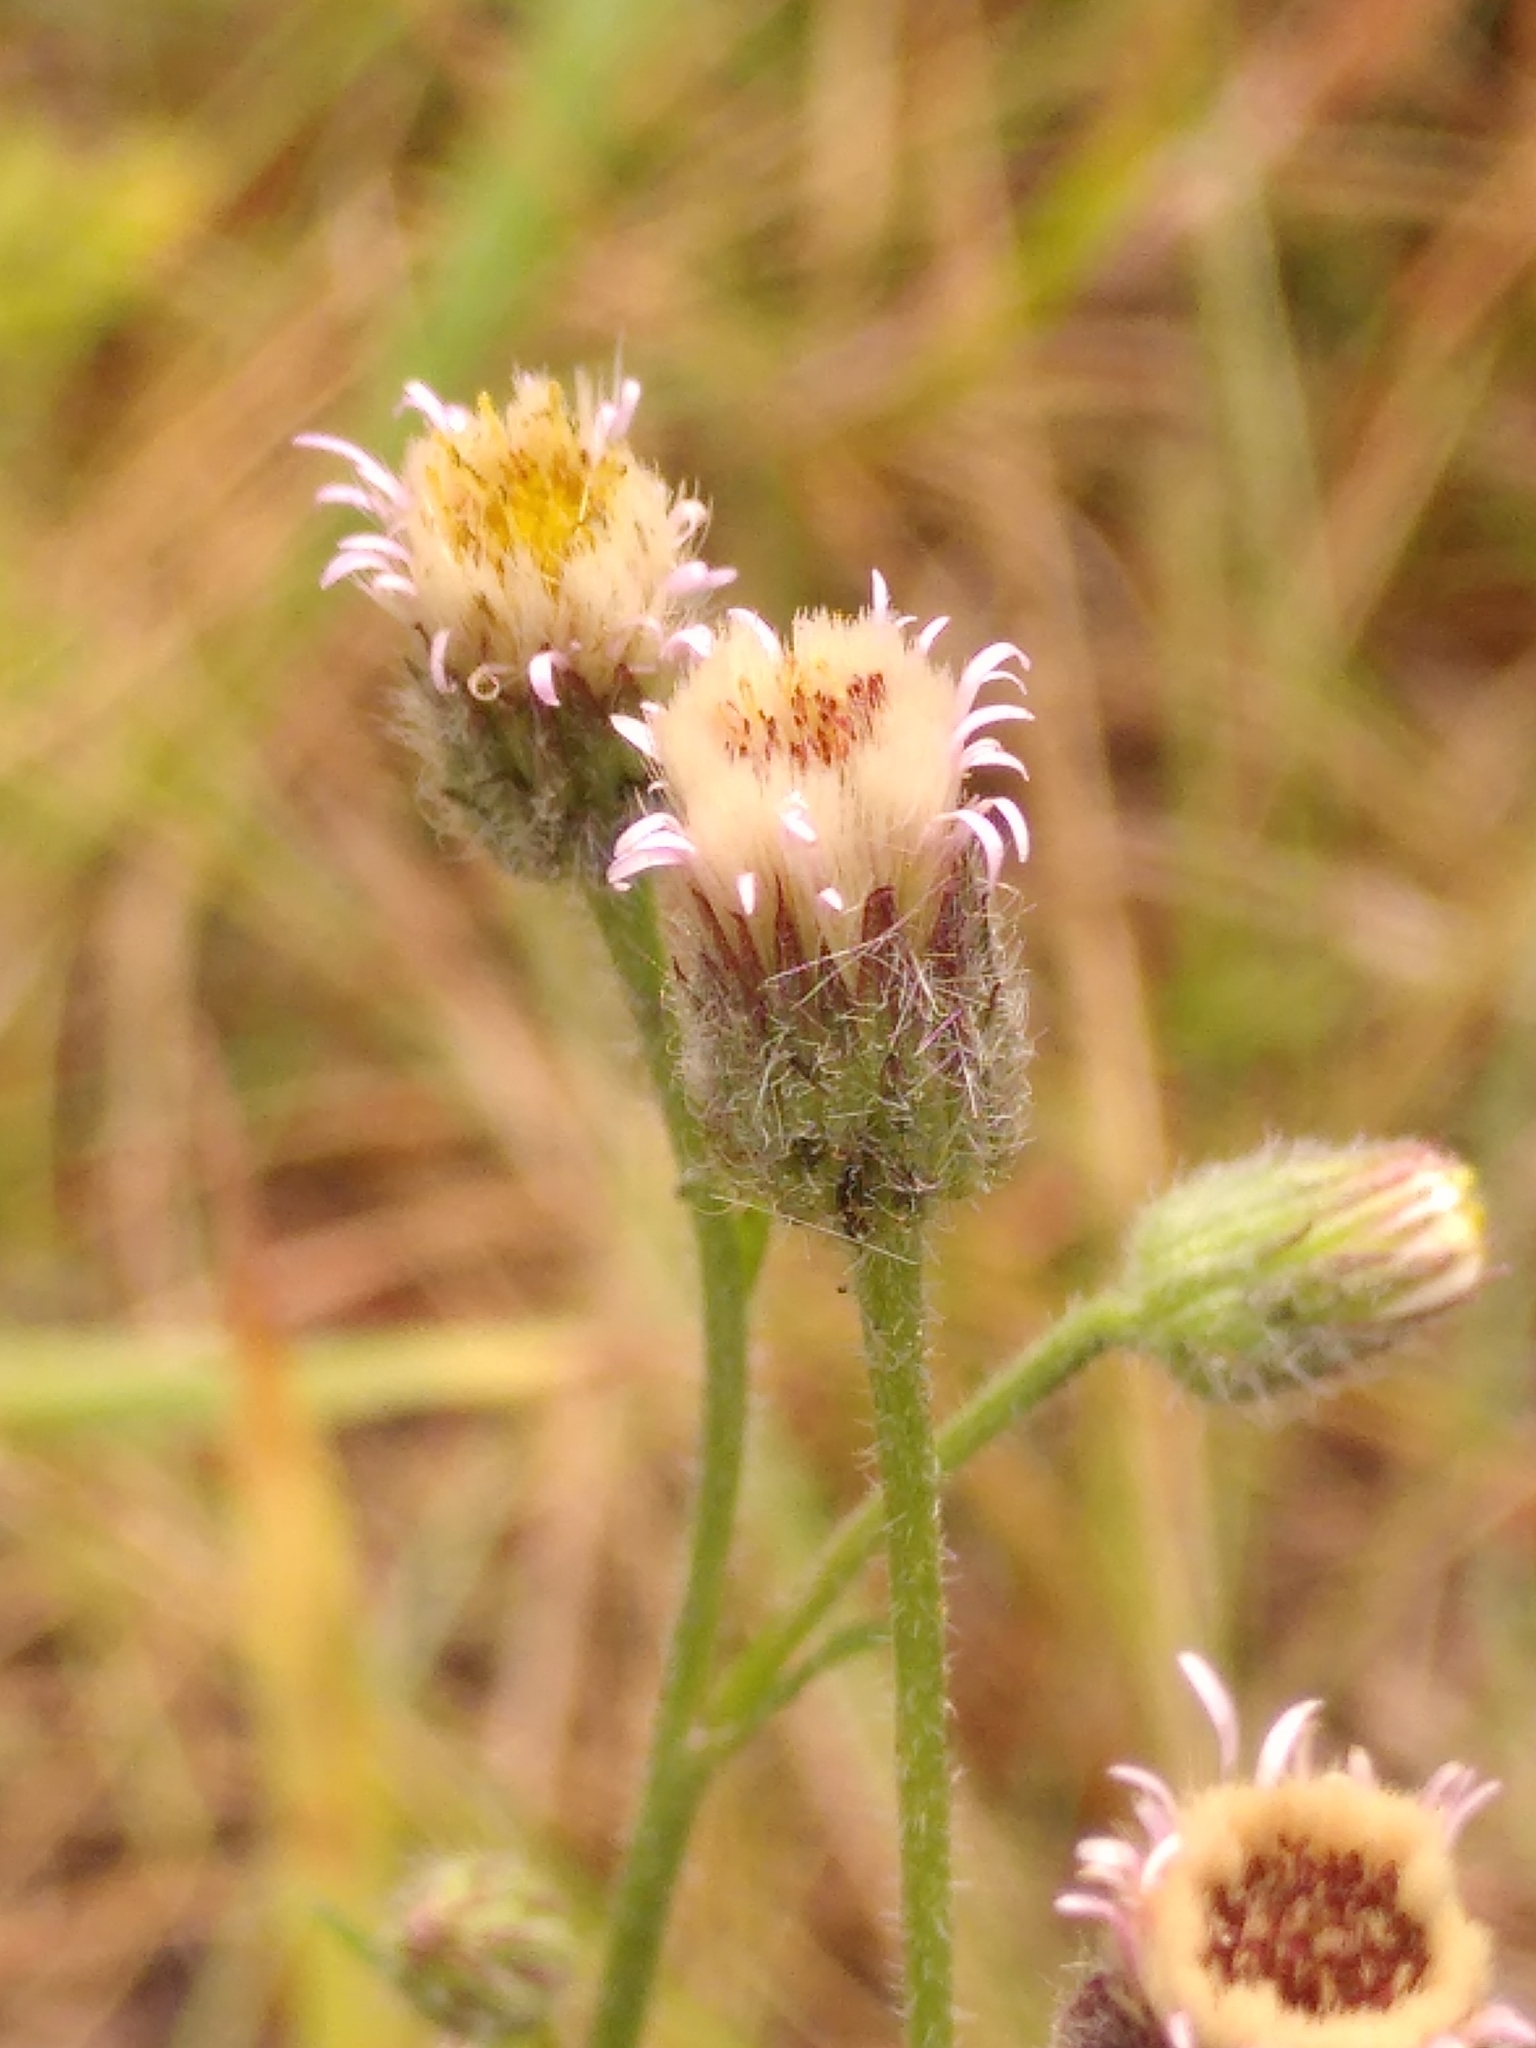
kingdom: Plantae
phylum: Tracheophyta
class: Magnoliopsida
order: Asterales
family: Asteraceae
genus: Erigeron
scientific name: Erigeron acris
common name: Blue fleabane
